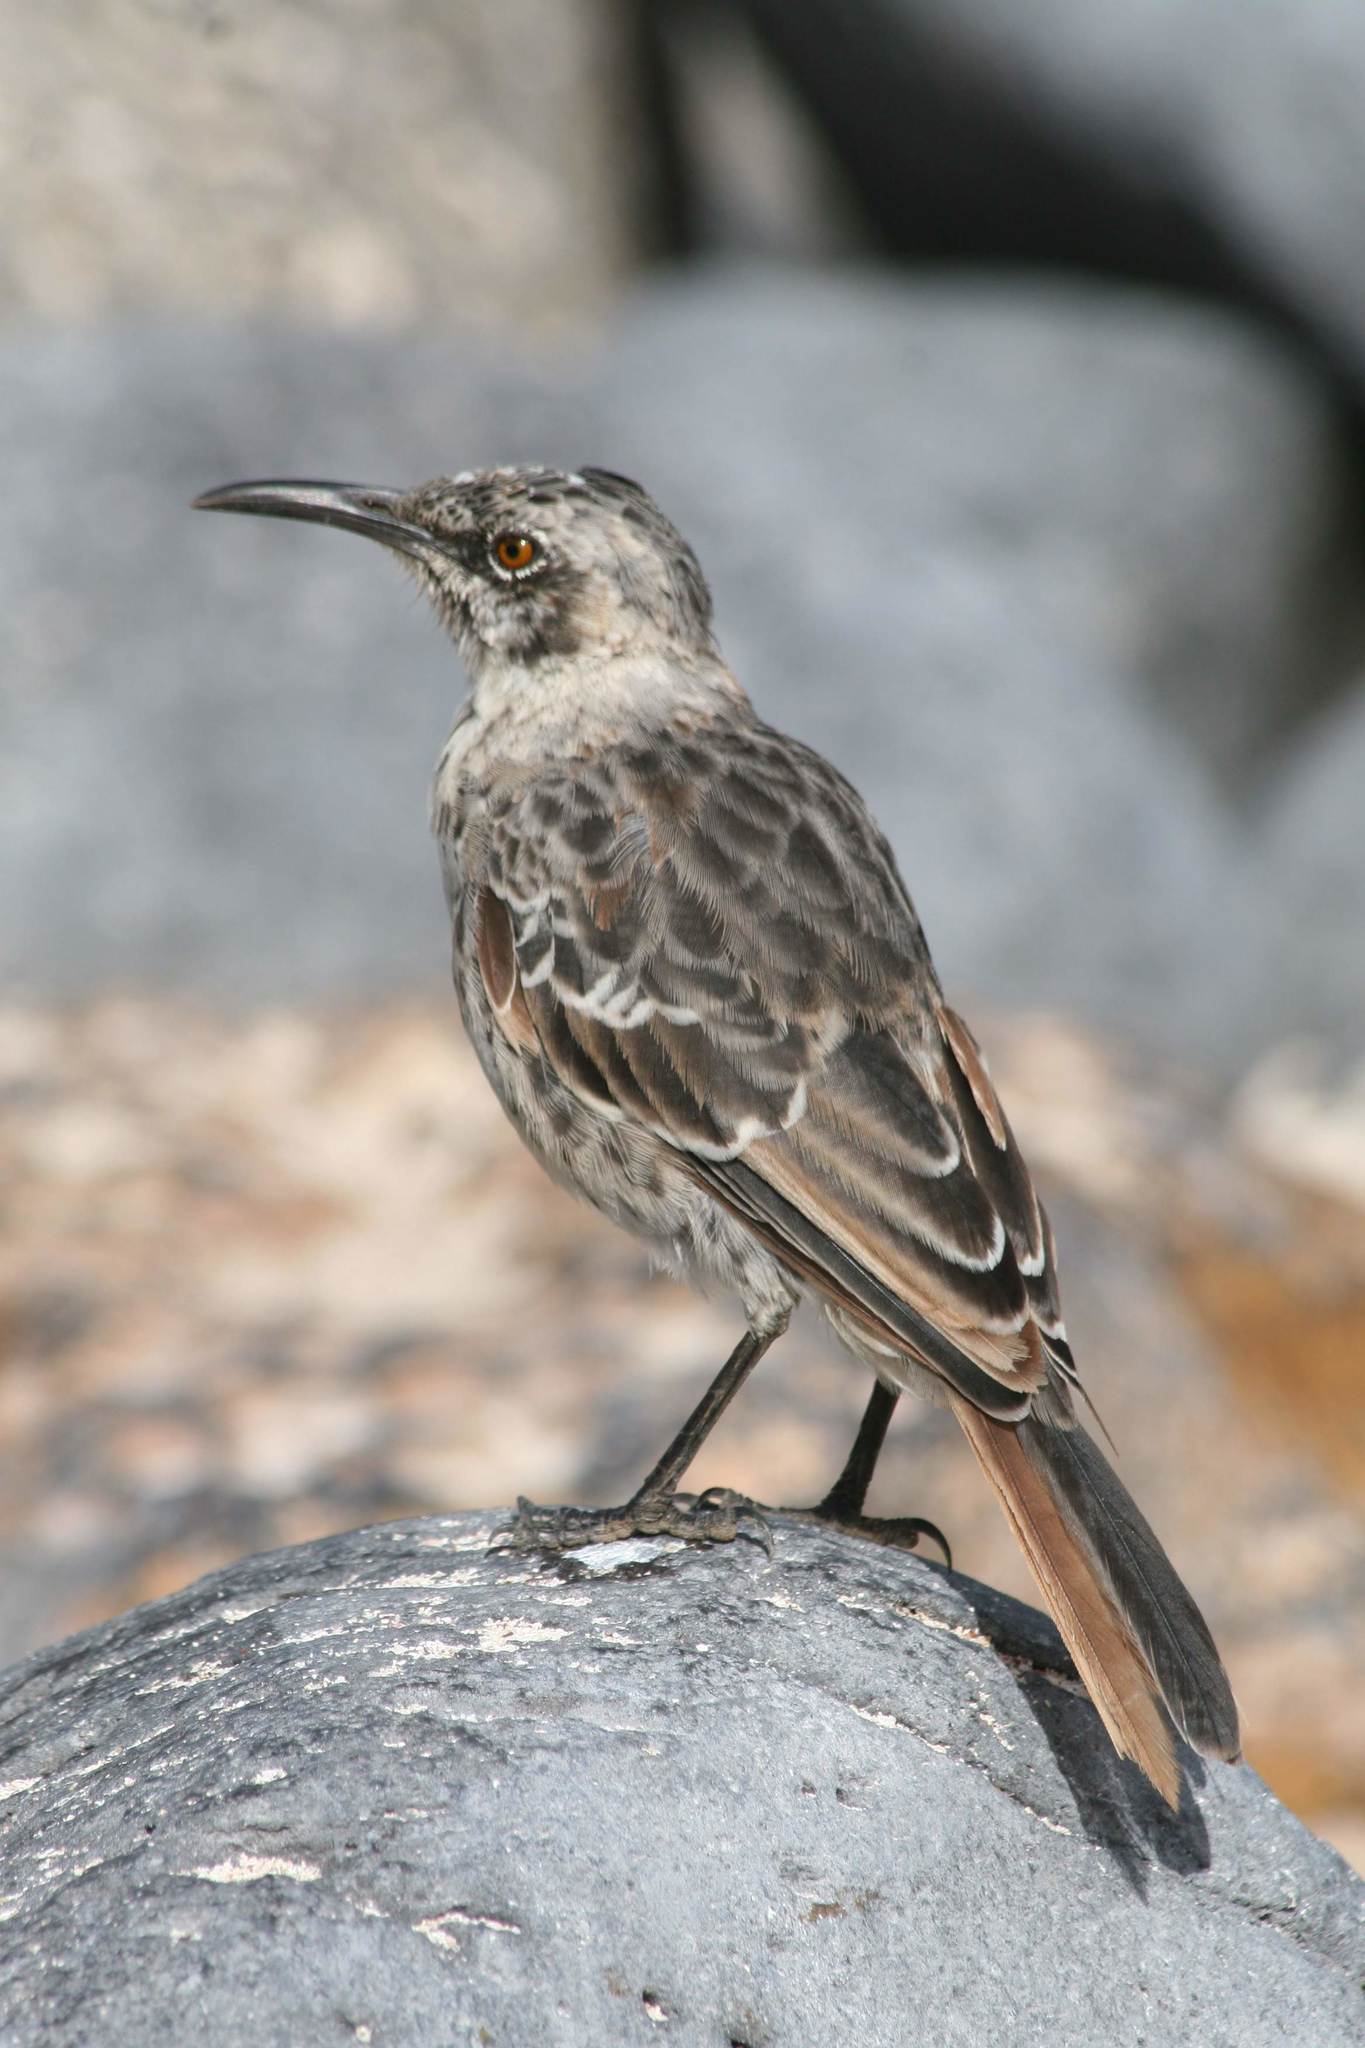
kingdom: Animalia
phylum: Chordata
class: Aves
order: Passeriformes
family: Mimidae
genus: Mimus
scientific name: Mimus parvulus
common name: Galapagos mockingbird
